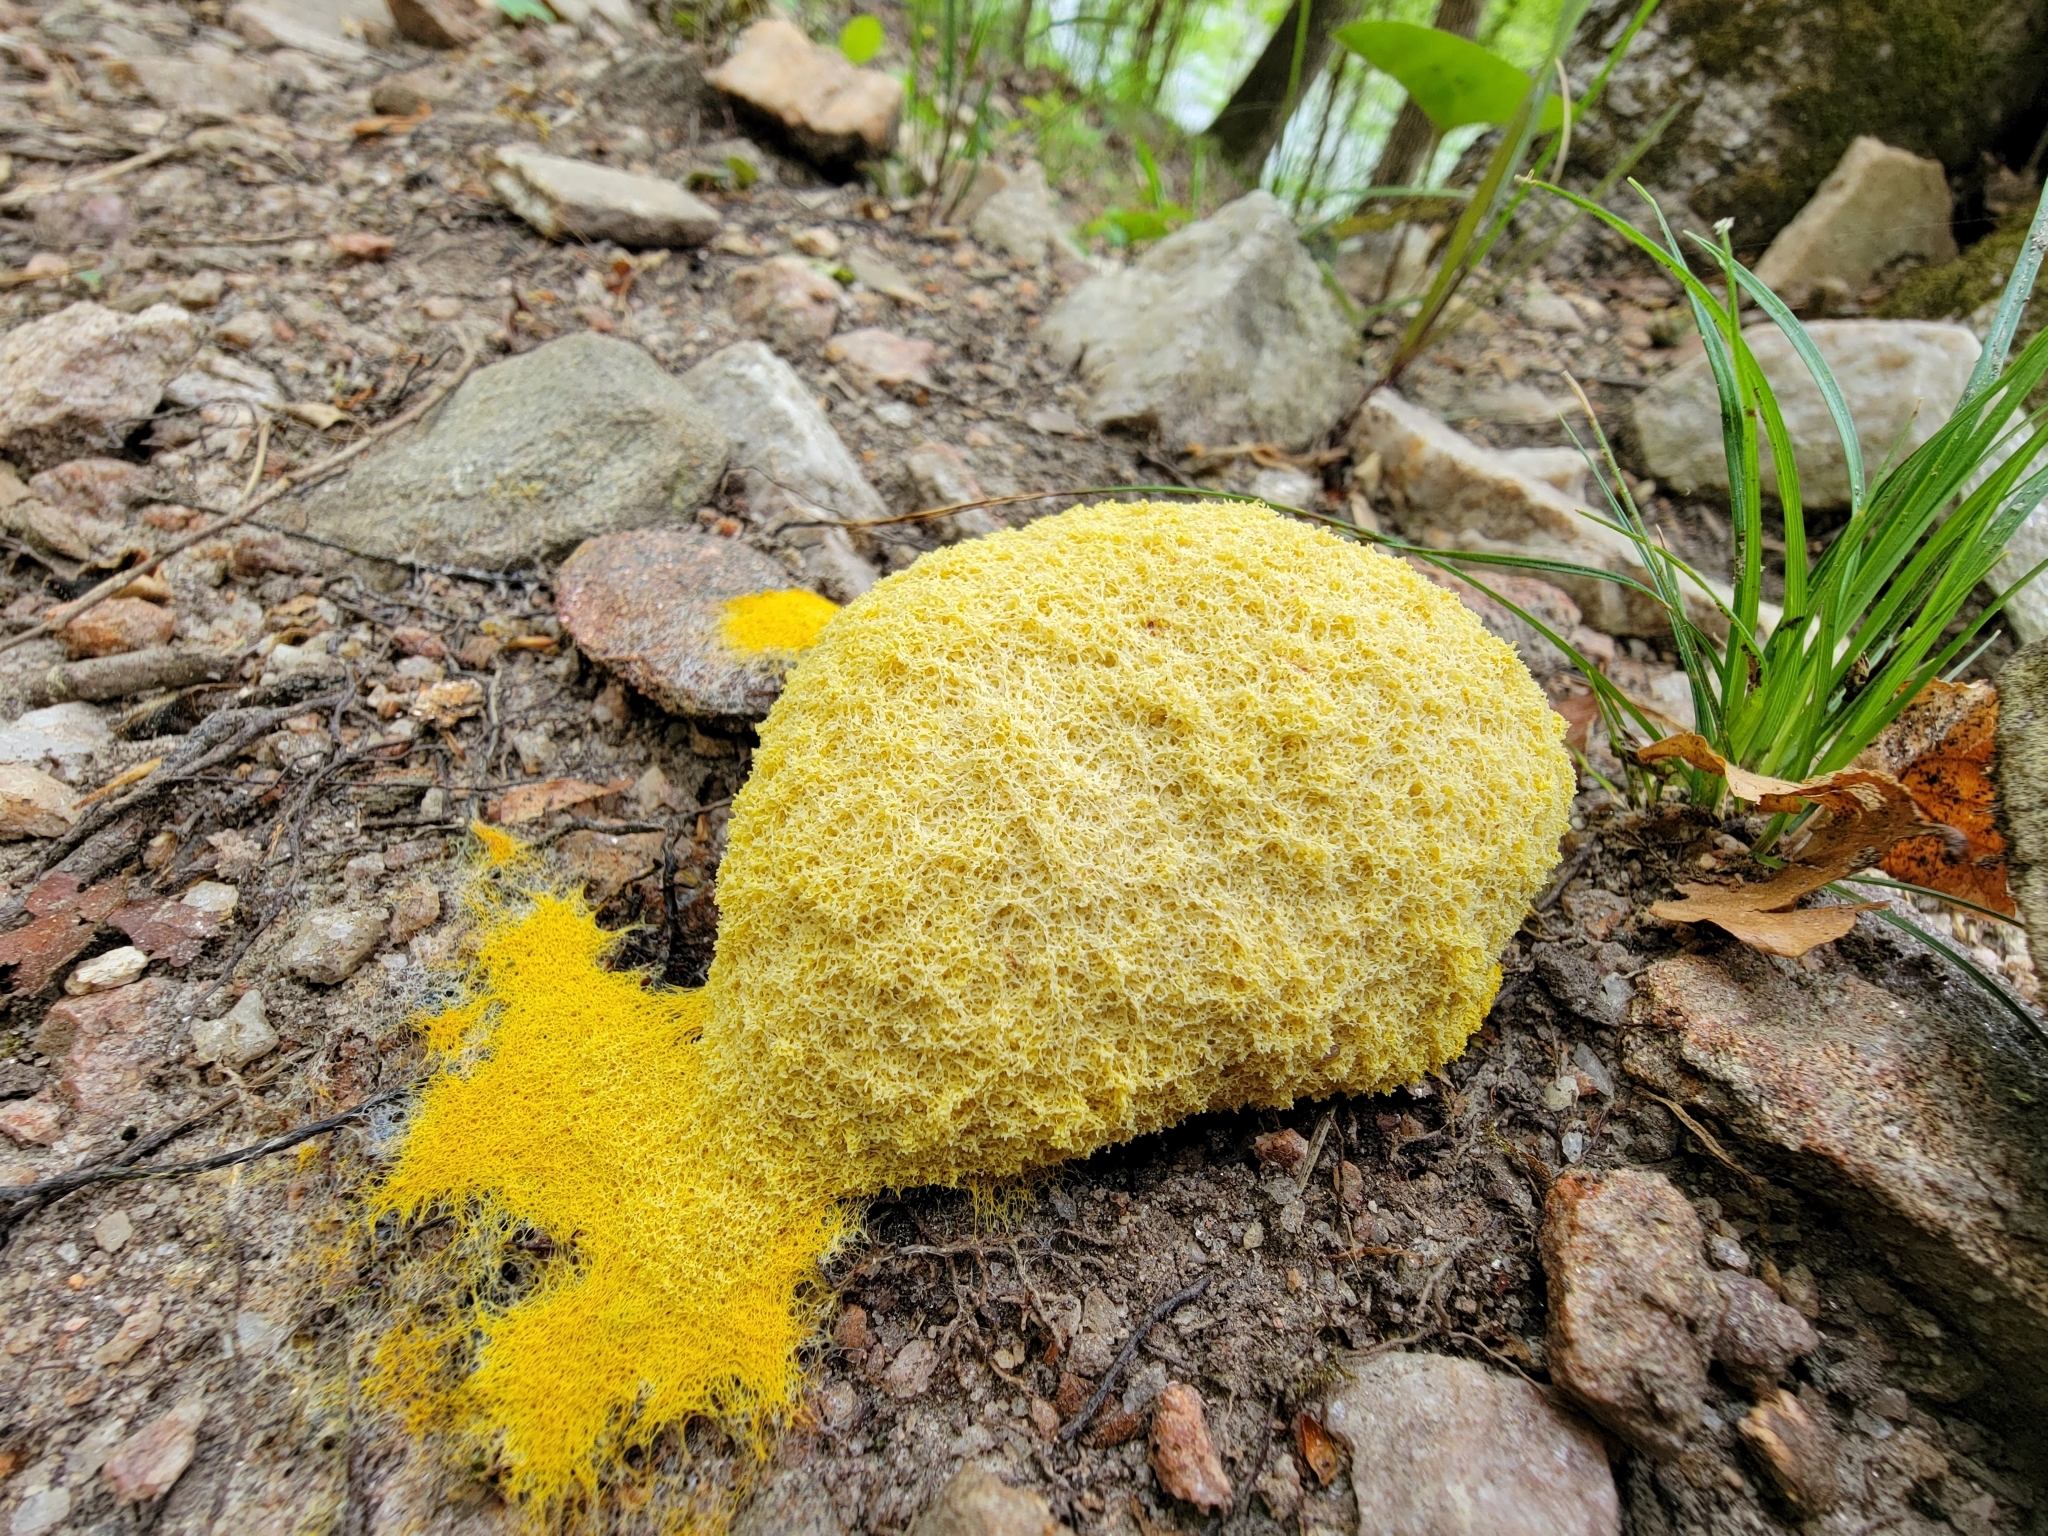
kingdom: Protozoa
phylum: Mycetozoa
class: Myxomycetes
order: Physarales
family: Physaraceae
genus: Fuligo
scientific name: Fuligo septica
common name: Dog vomit slime mold
